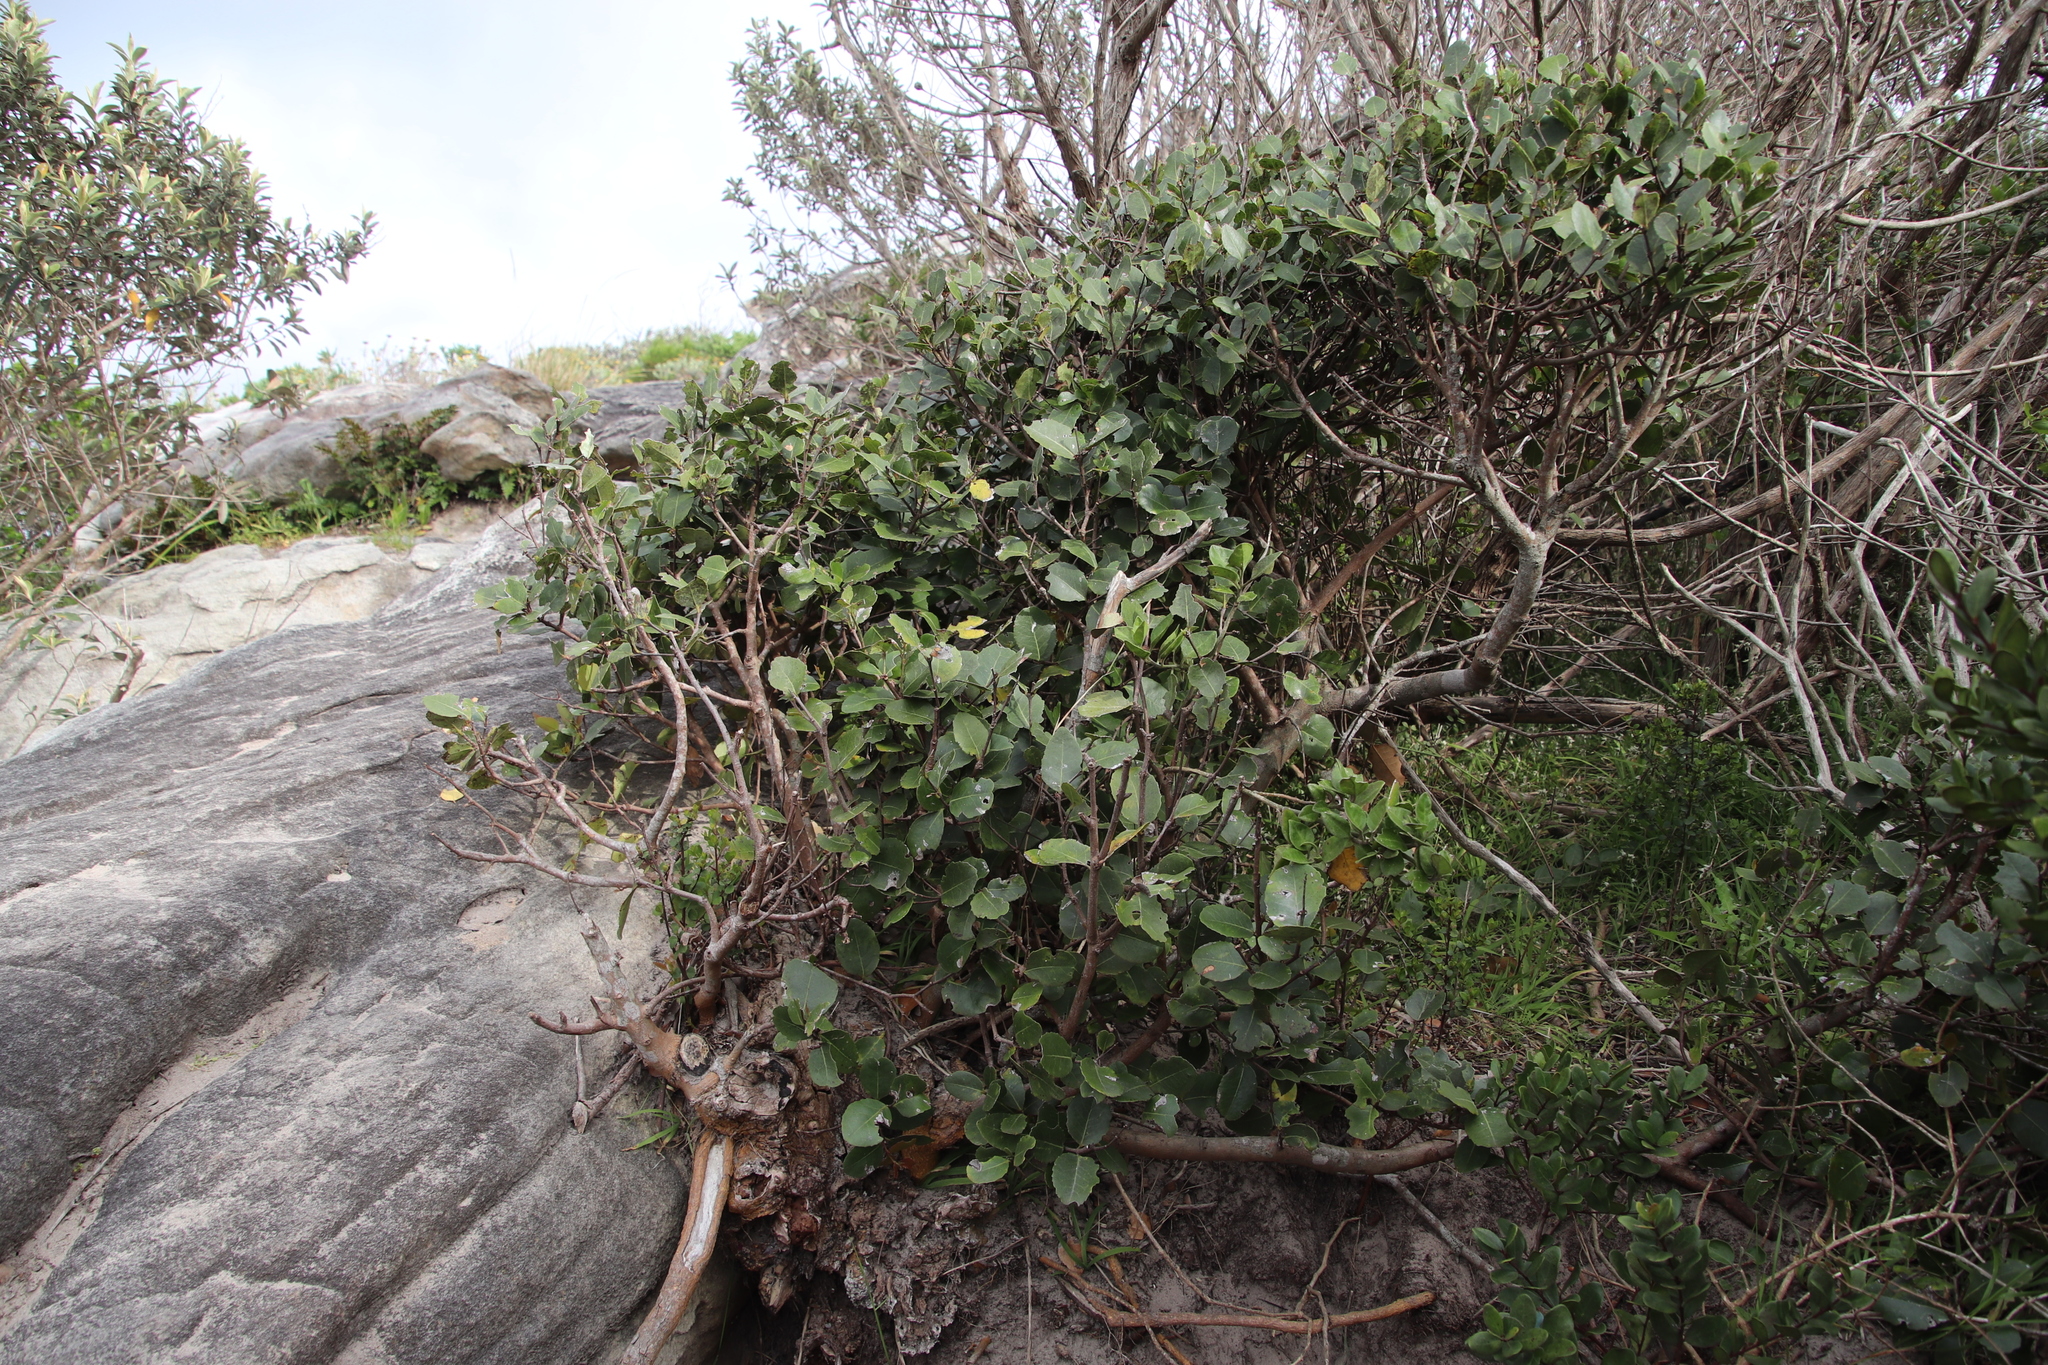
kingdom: Plantae
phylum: Tracheophyta
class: Magnoliopsida
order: Celastrales
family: Celastraceae
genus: Cassine
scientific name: Cassine peragua
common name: Cape saffron
